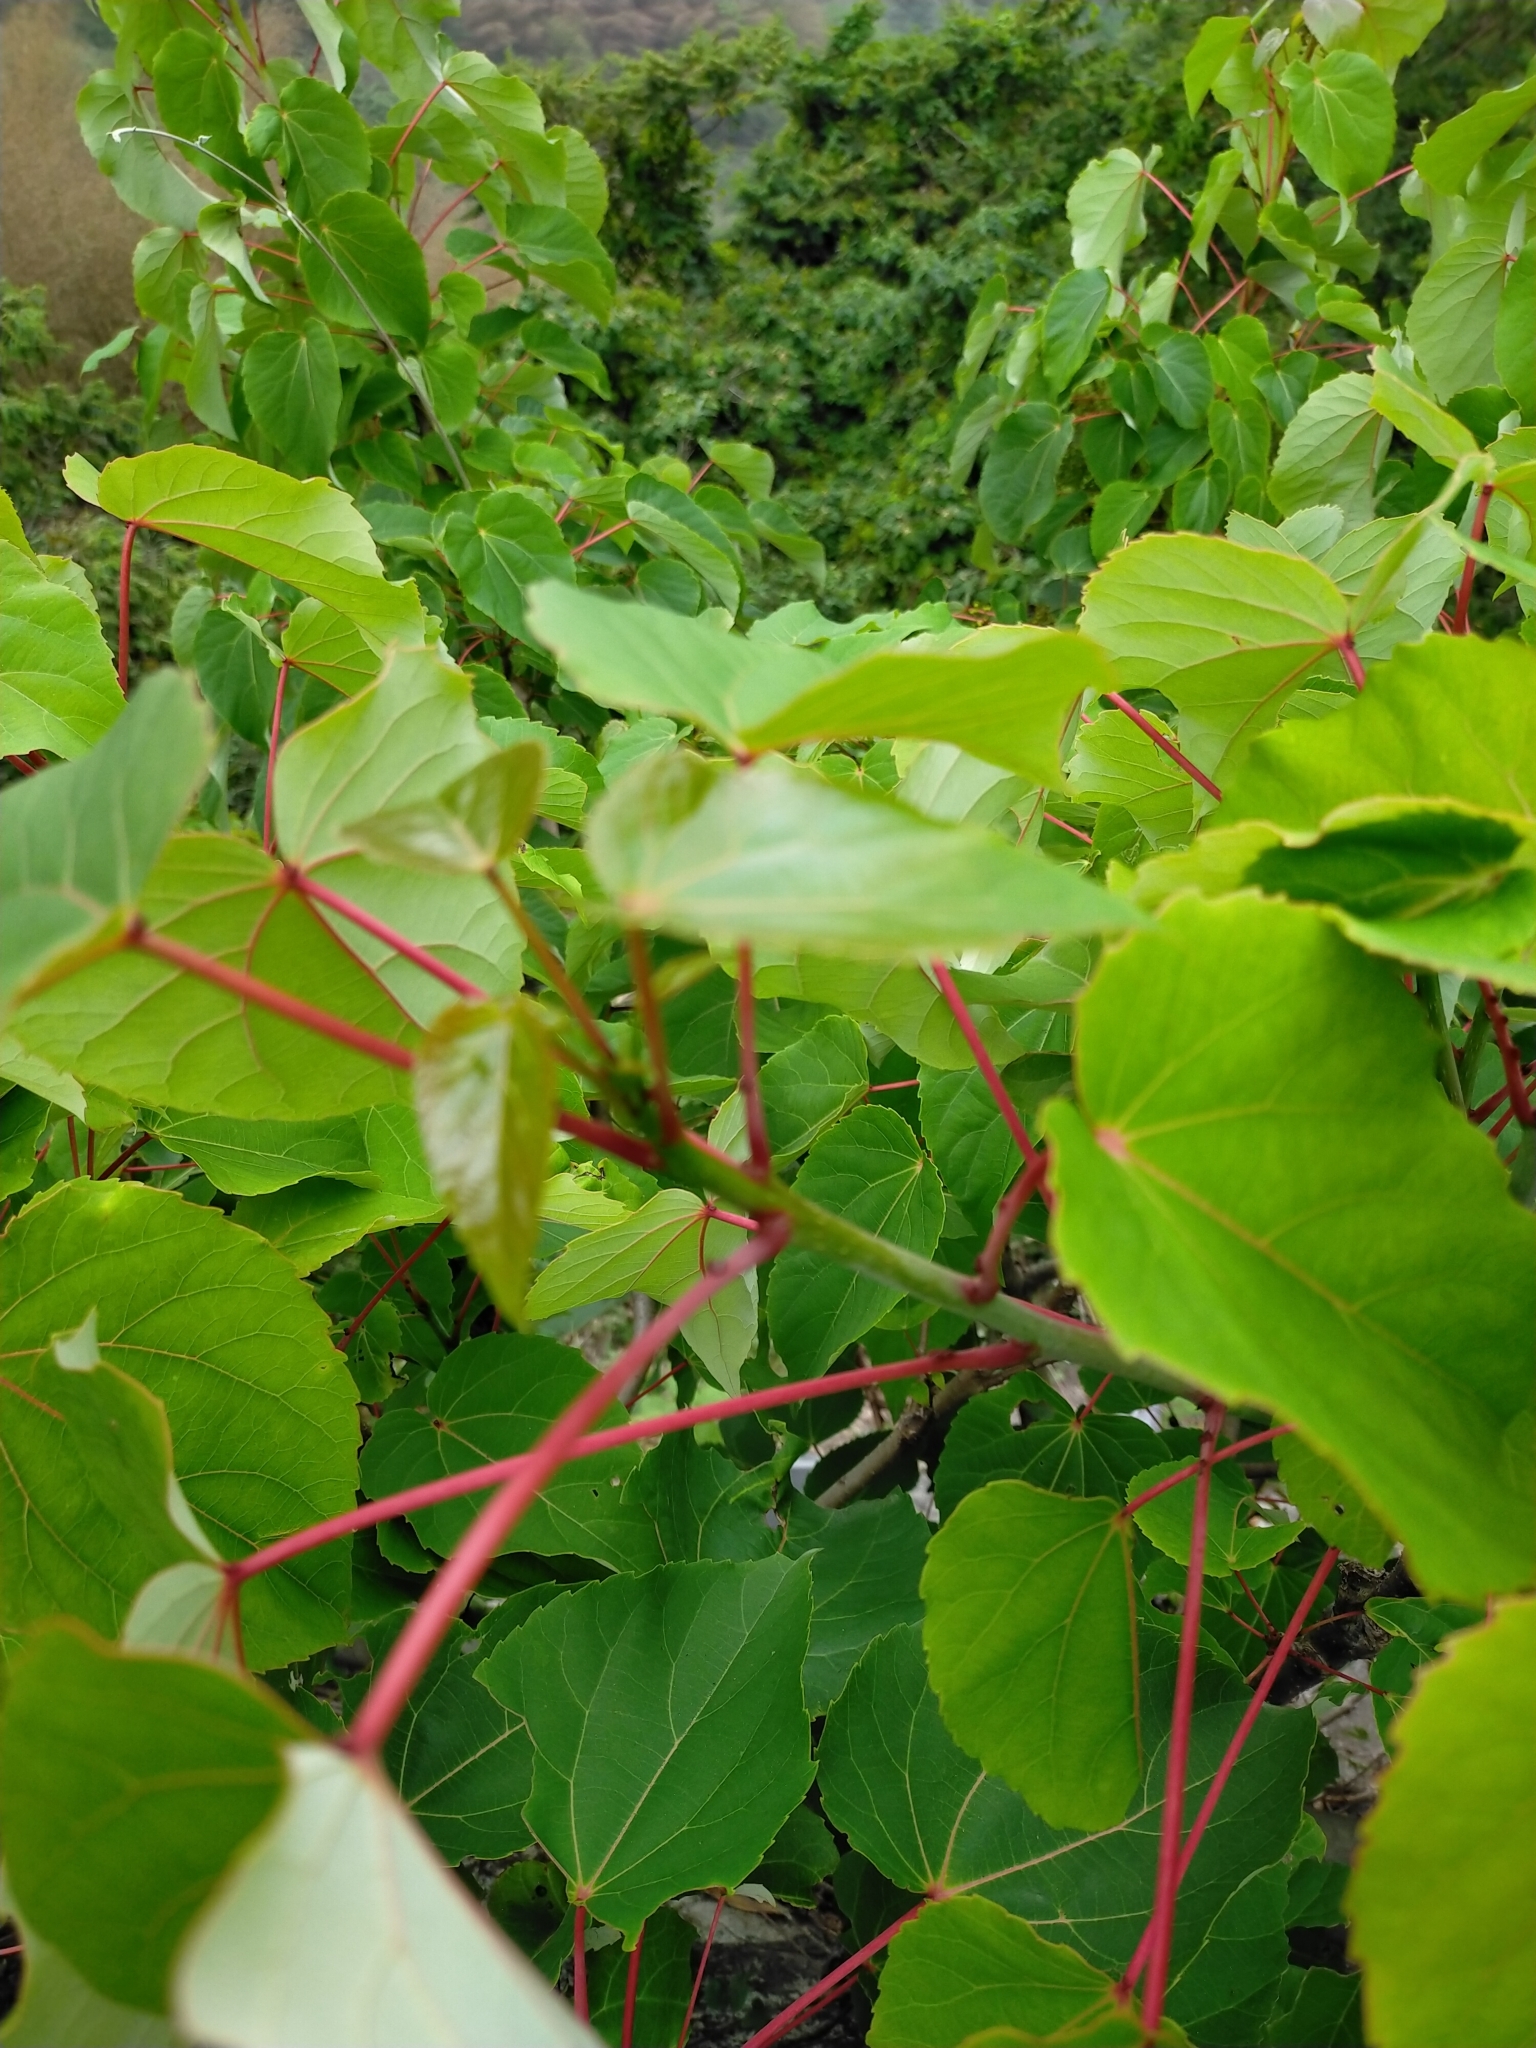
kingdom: Plantae
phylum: Tracheophyta
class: Magnoliopsida
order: Malpighiales
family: Salicaceae
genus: Idesia
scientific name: Idesia polycarpa
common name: Idesia tree
